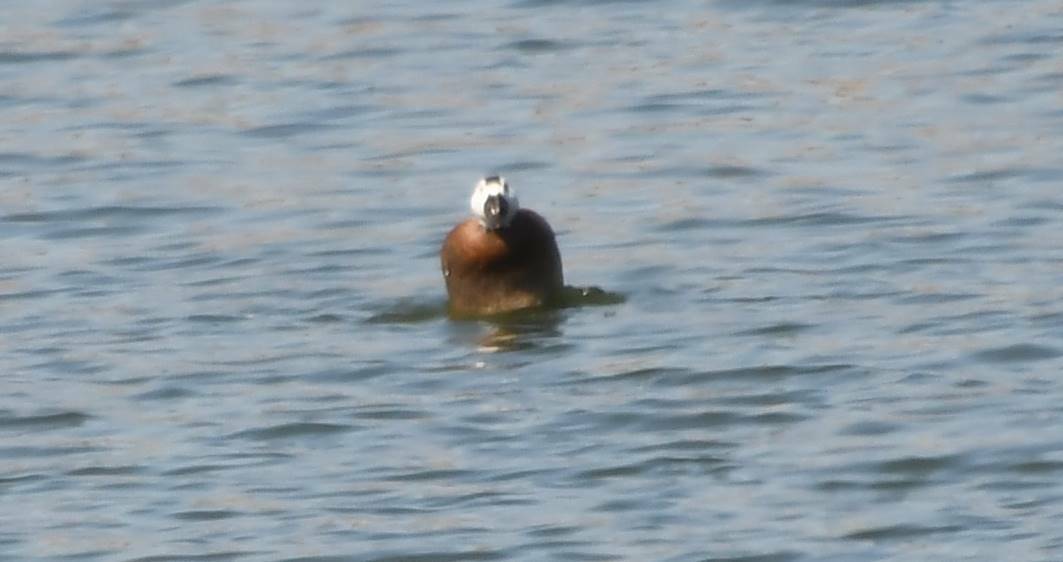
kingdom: Animalia
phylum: Chordata
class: Aves
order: Anseriformes
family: Anatidae
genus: Oxyura
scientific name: Oxyura leucocephala
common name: White-headed duck
